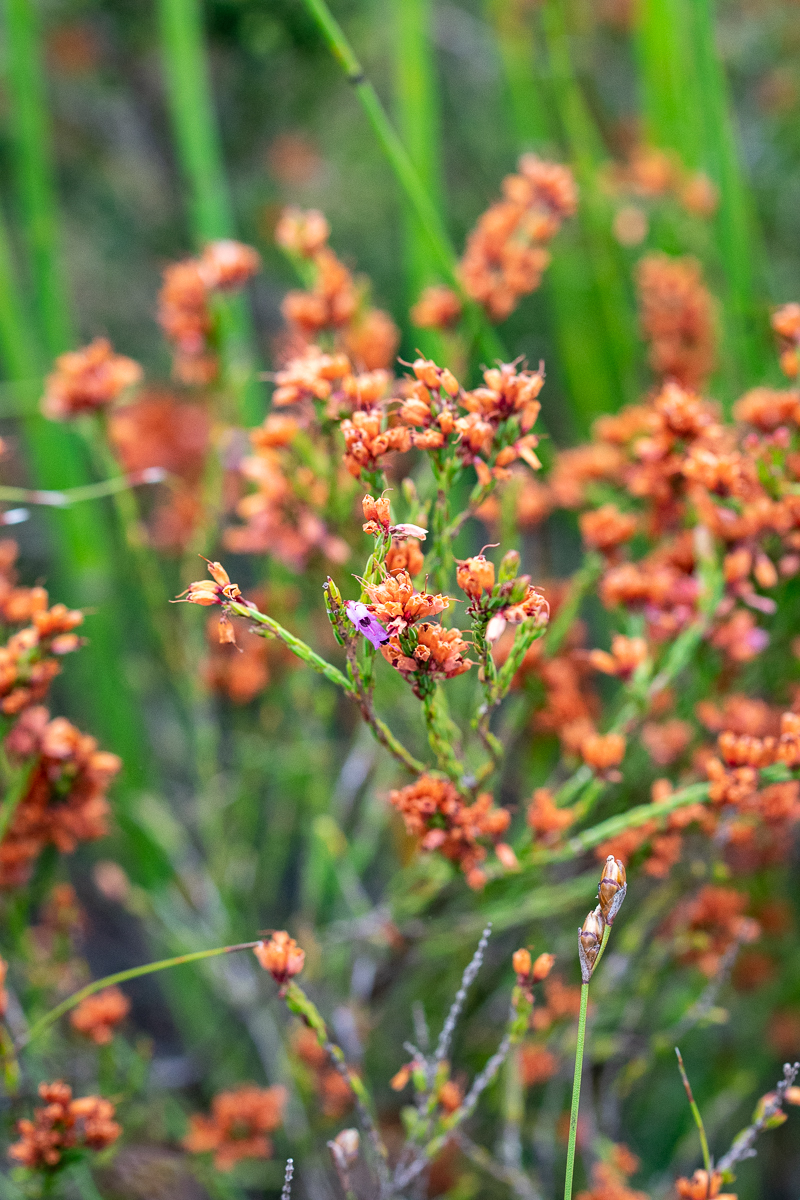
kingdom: Plantae
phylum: Tracheophyta
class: Magnoliopsida
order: Ericales
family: Ericaceae
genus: Erica
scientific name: Erica equisetifolia
